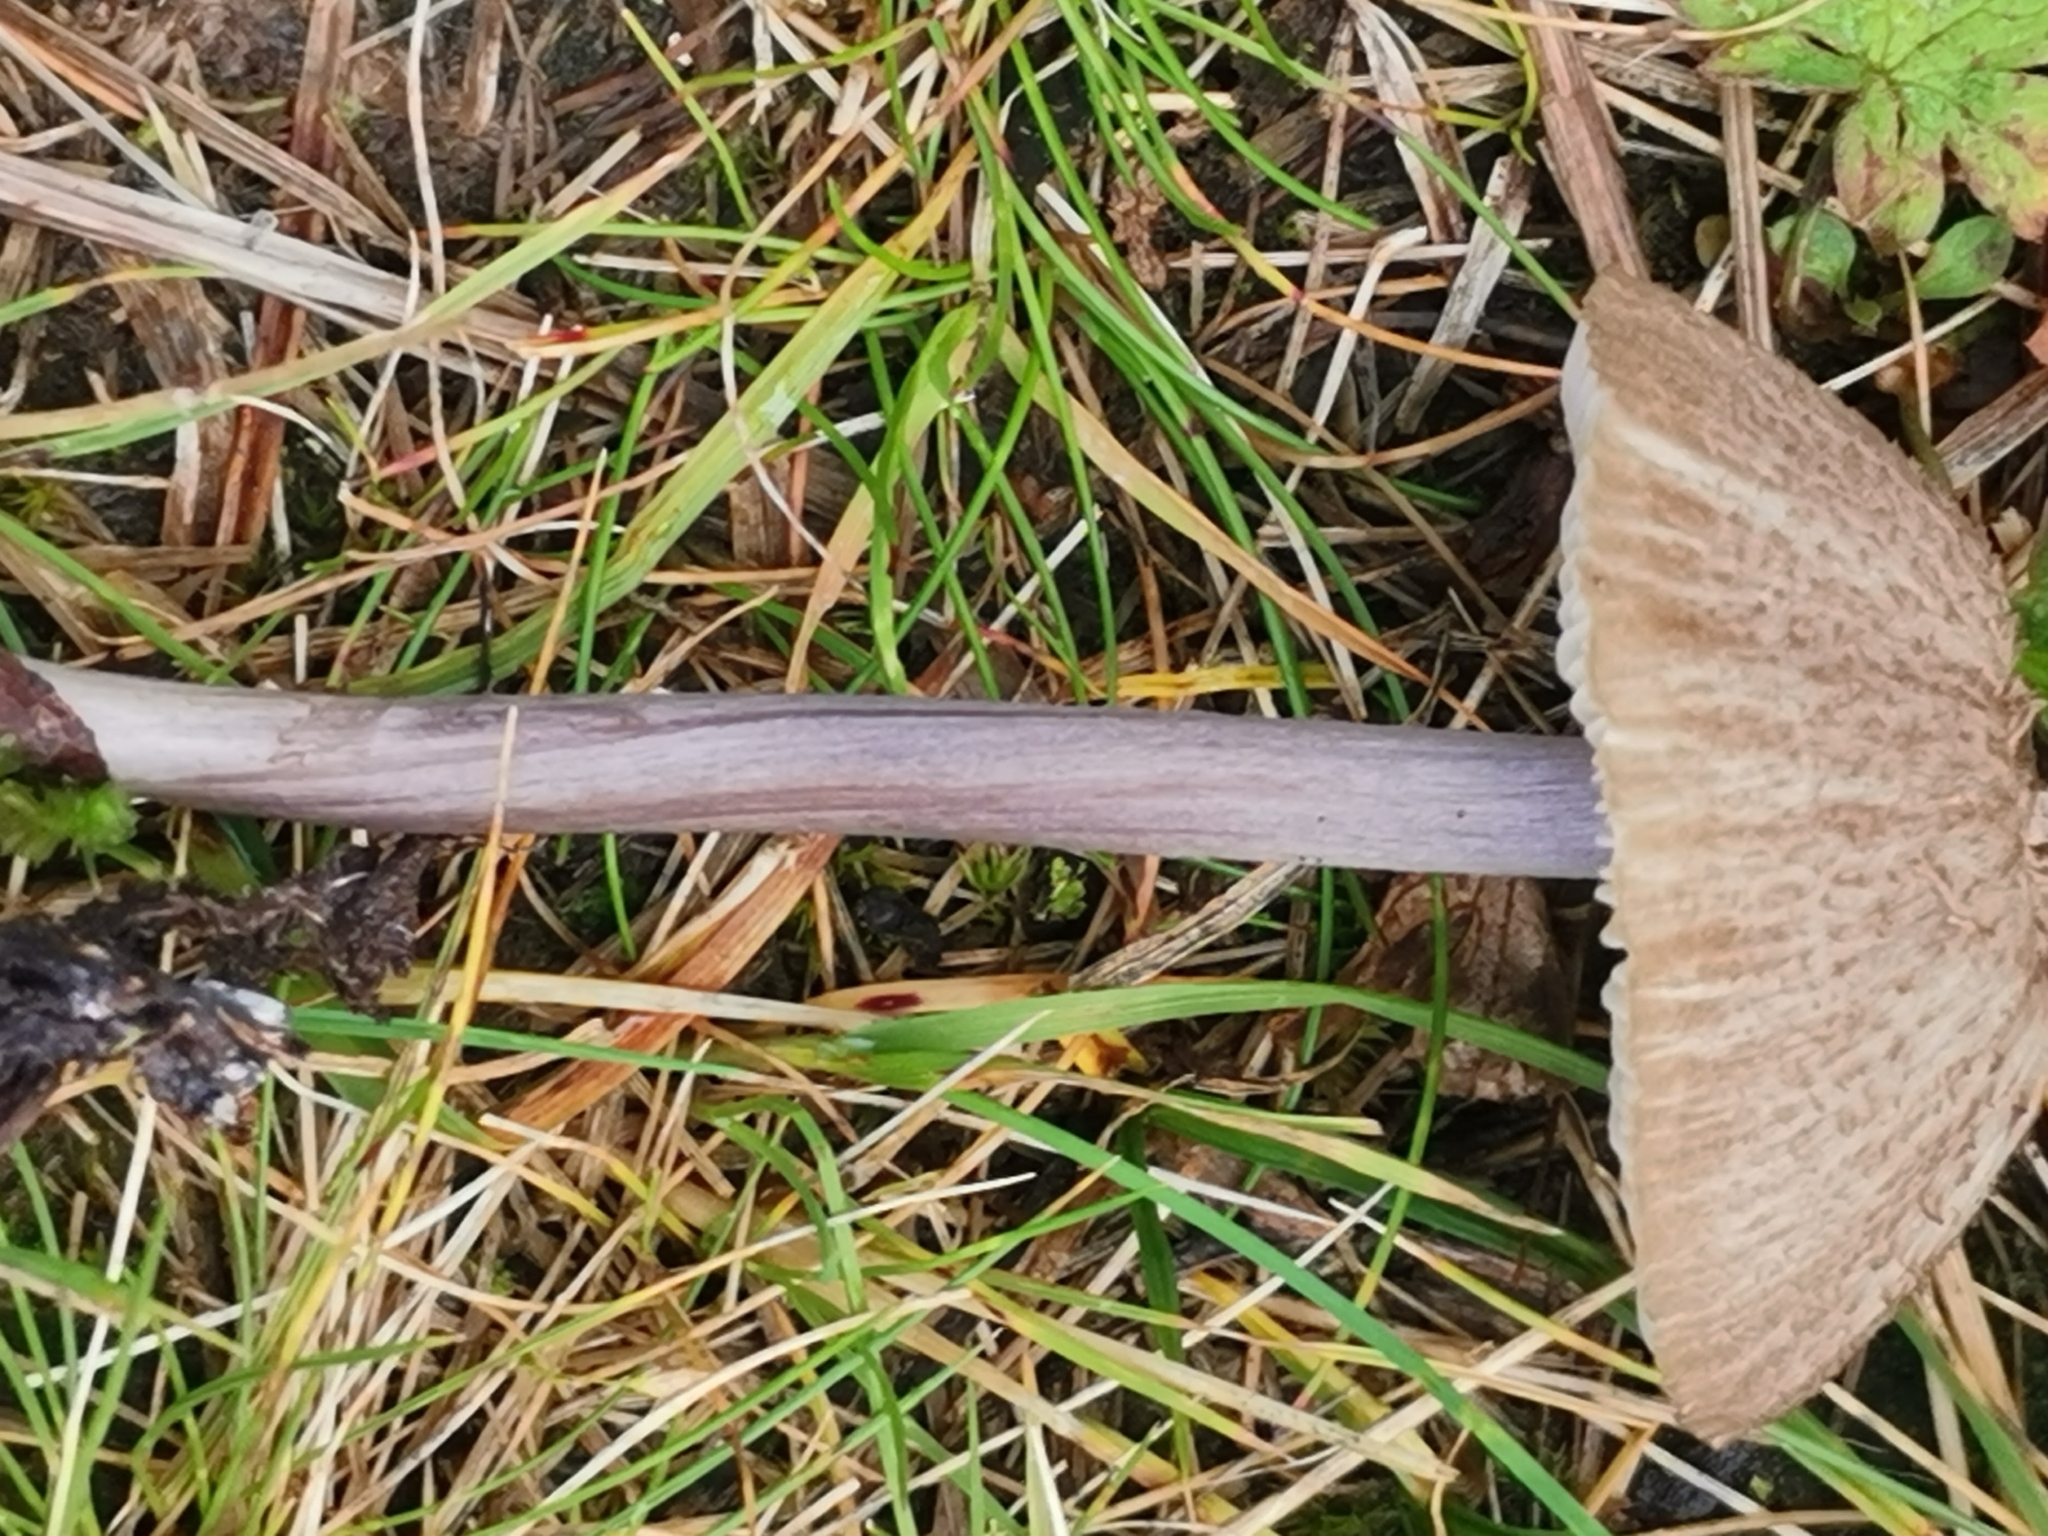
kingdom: Fungi
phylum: Basidiomycota
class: Agaricomycetes
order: Agaricales
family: Entolomataceae
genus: Entoloma
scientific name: Entoloma griseocyaneum
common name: Felted pinkgill
